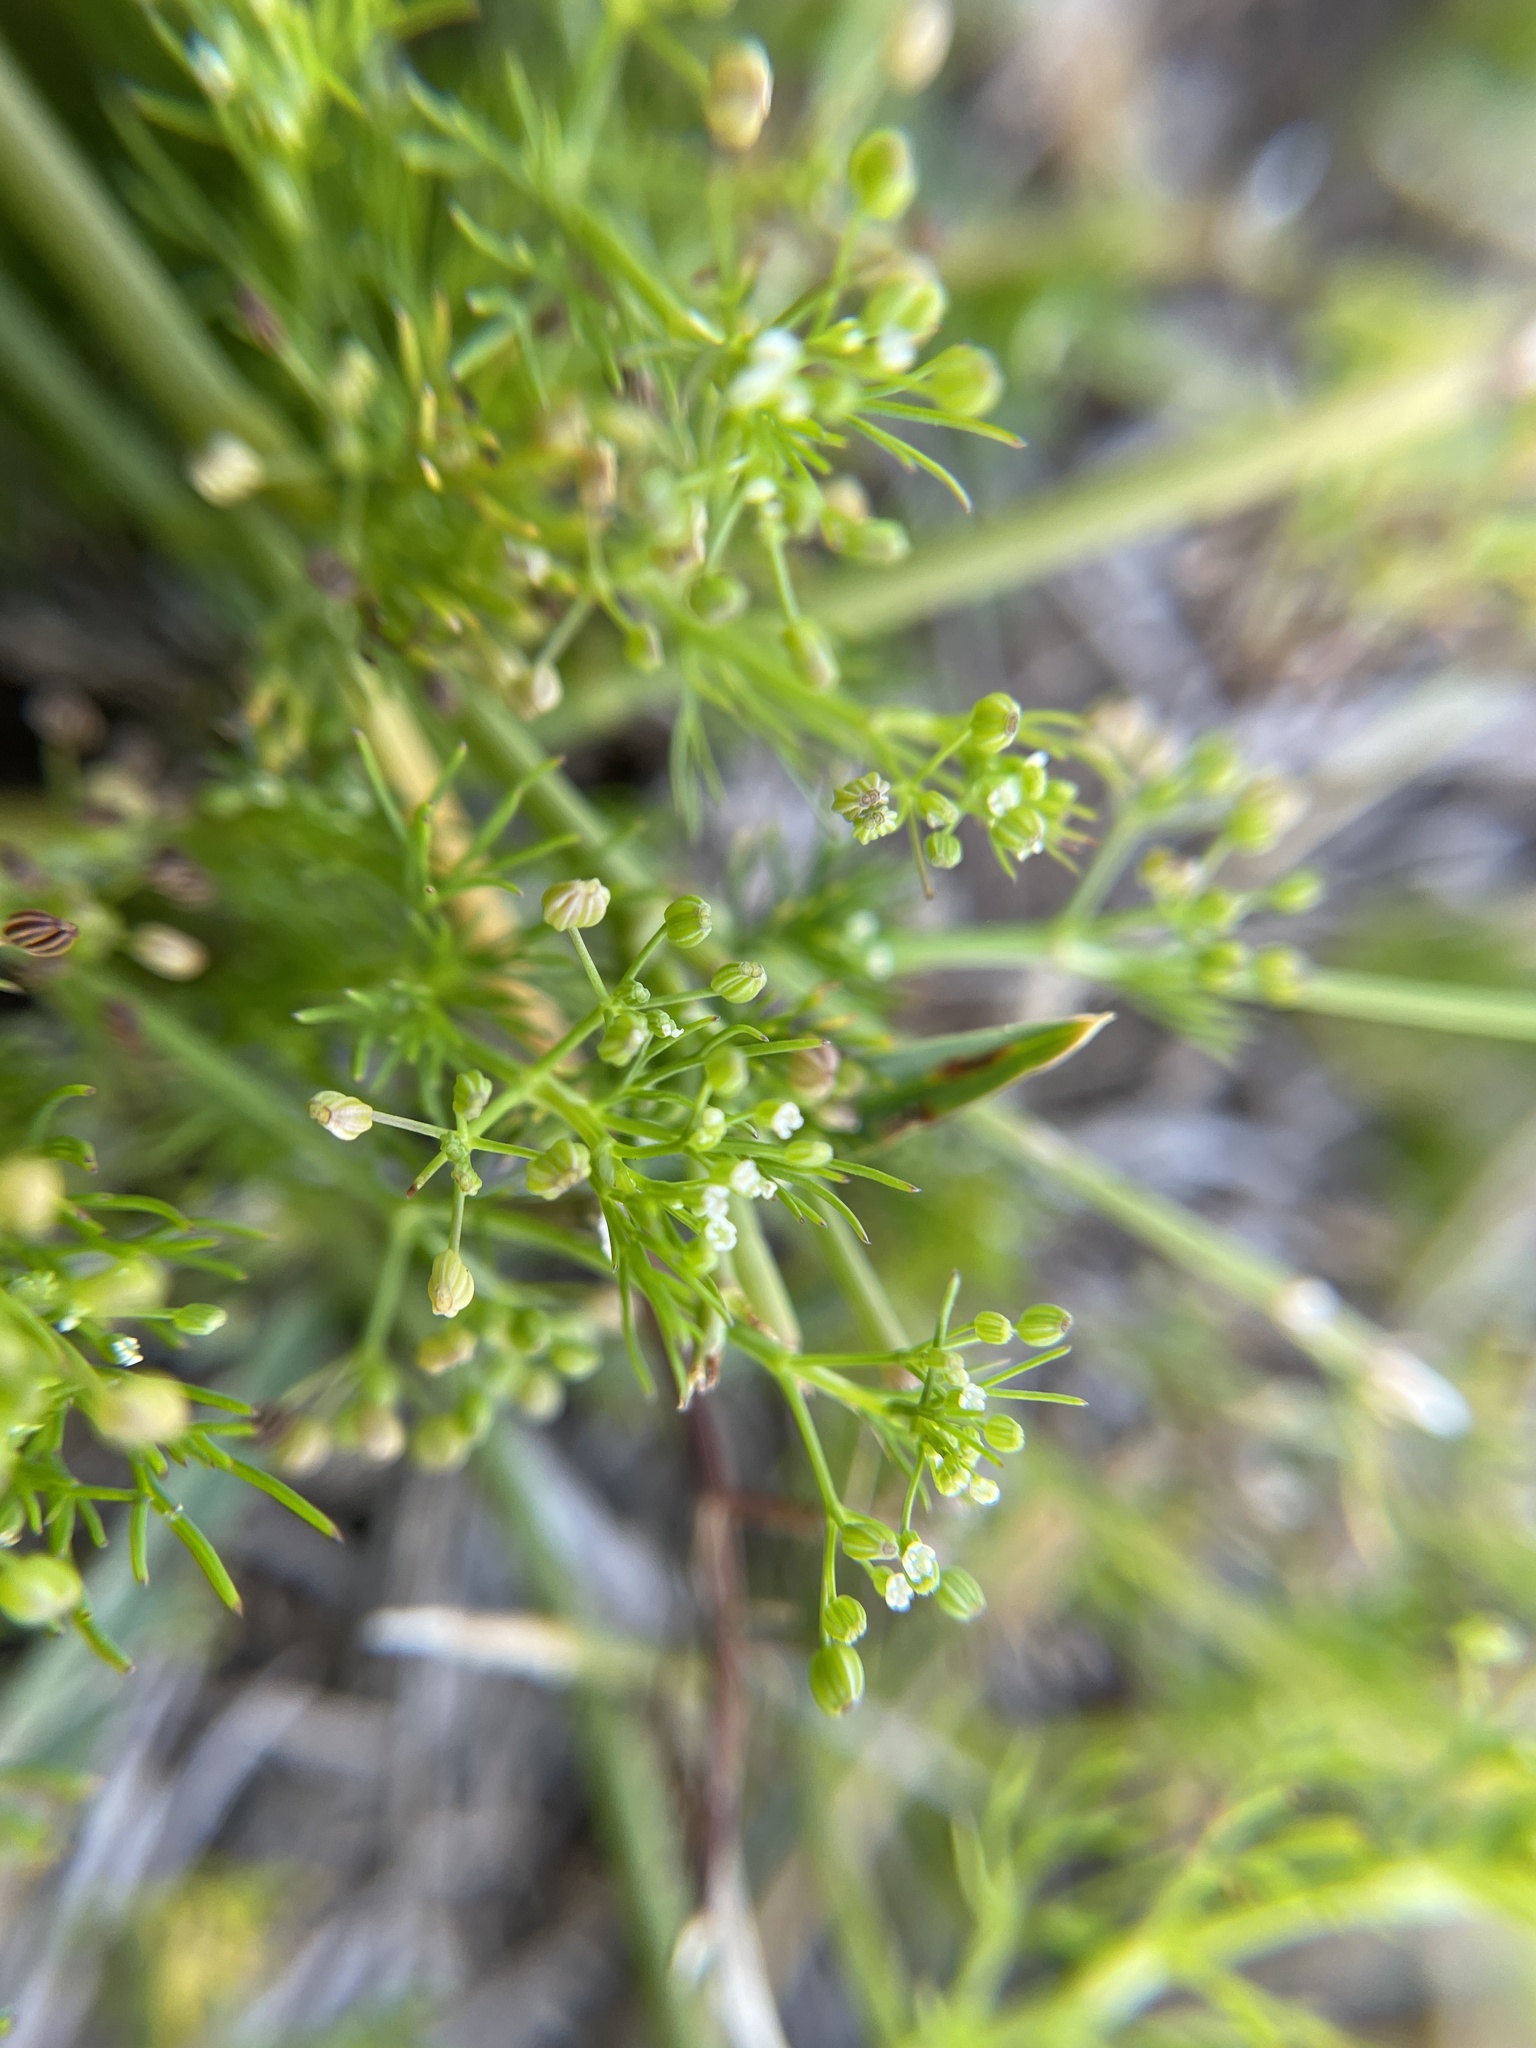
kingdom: Plantae
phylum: Tracheophyta
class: Magnoliopsida
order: Apiales
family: Apiaceae
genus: Cyclospermum
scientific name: Cyclospermum leptophyllum
